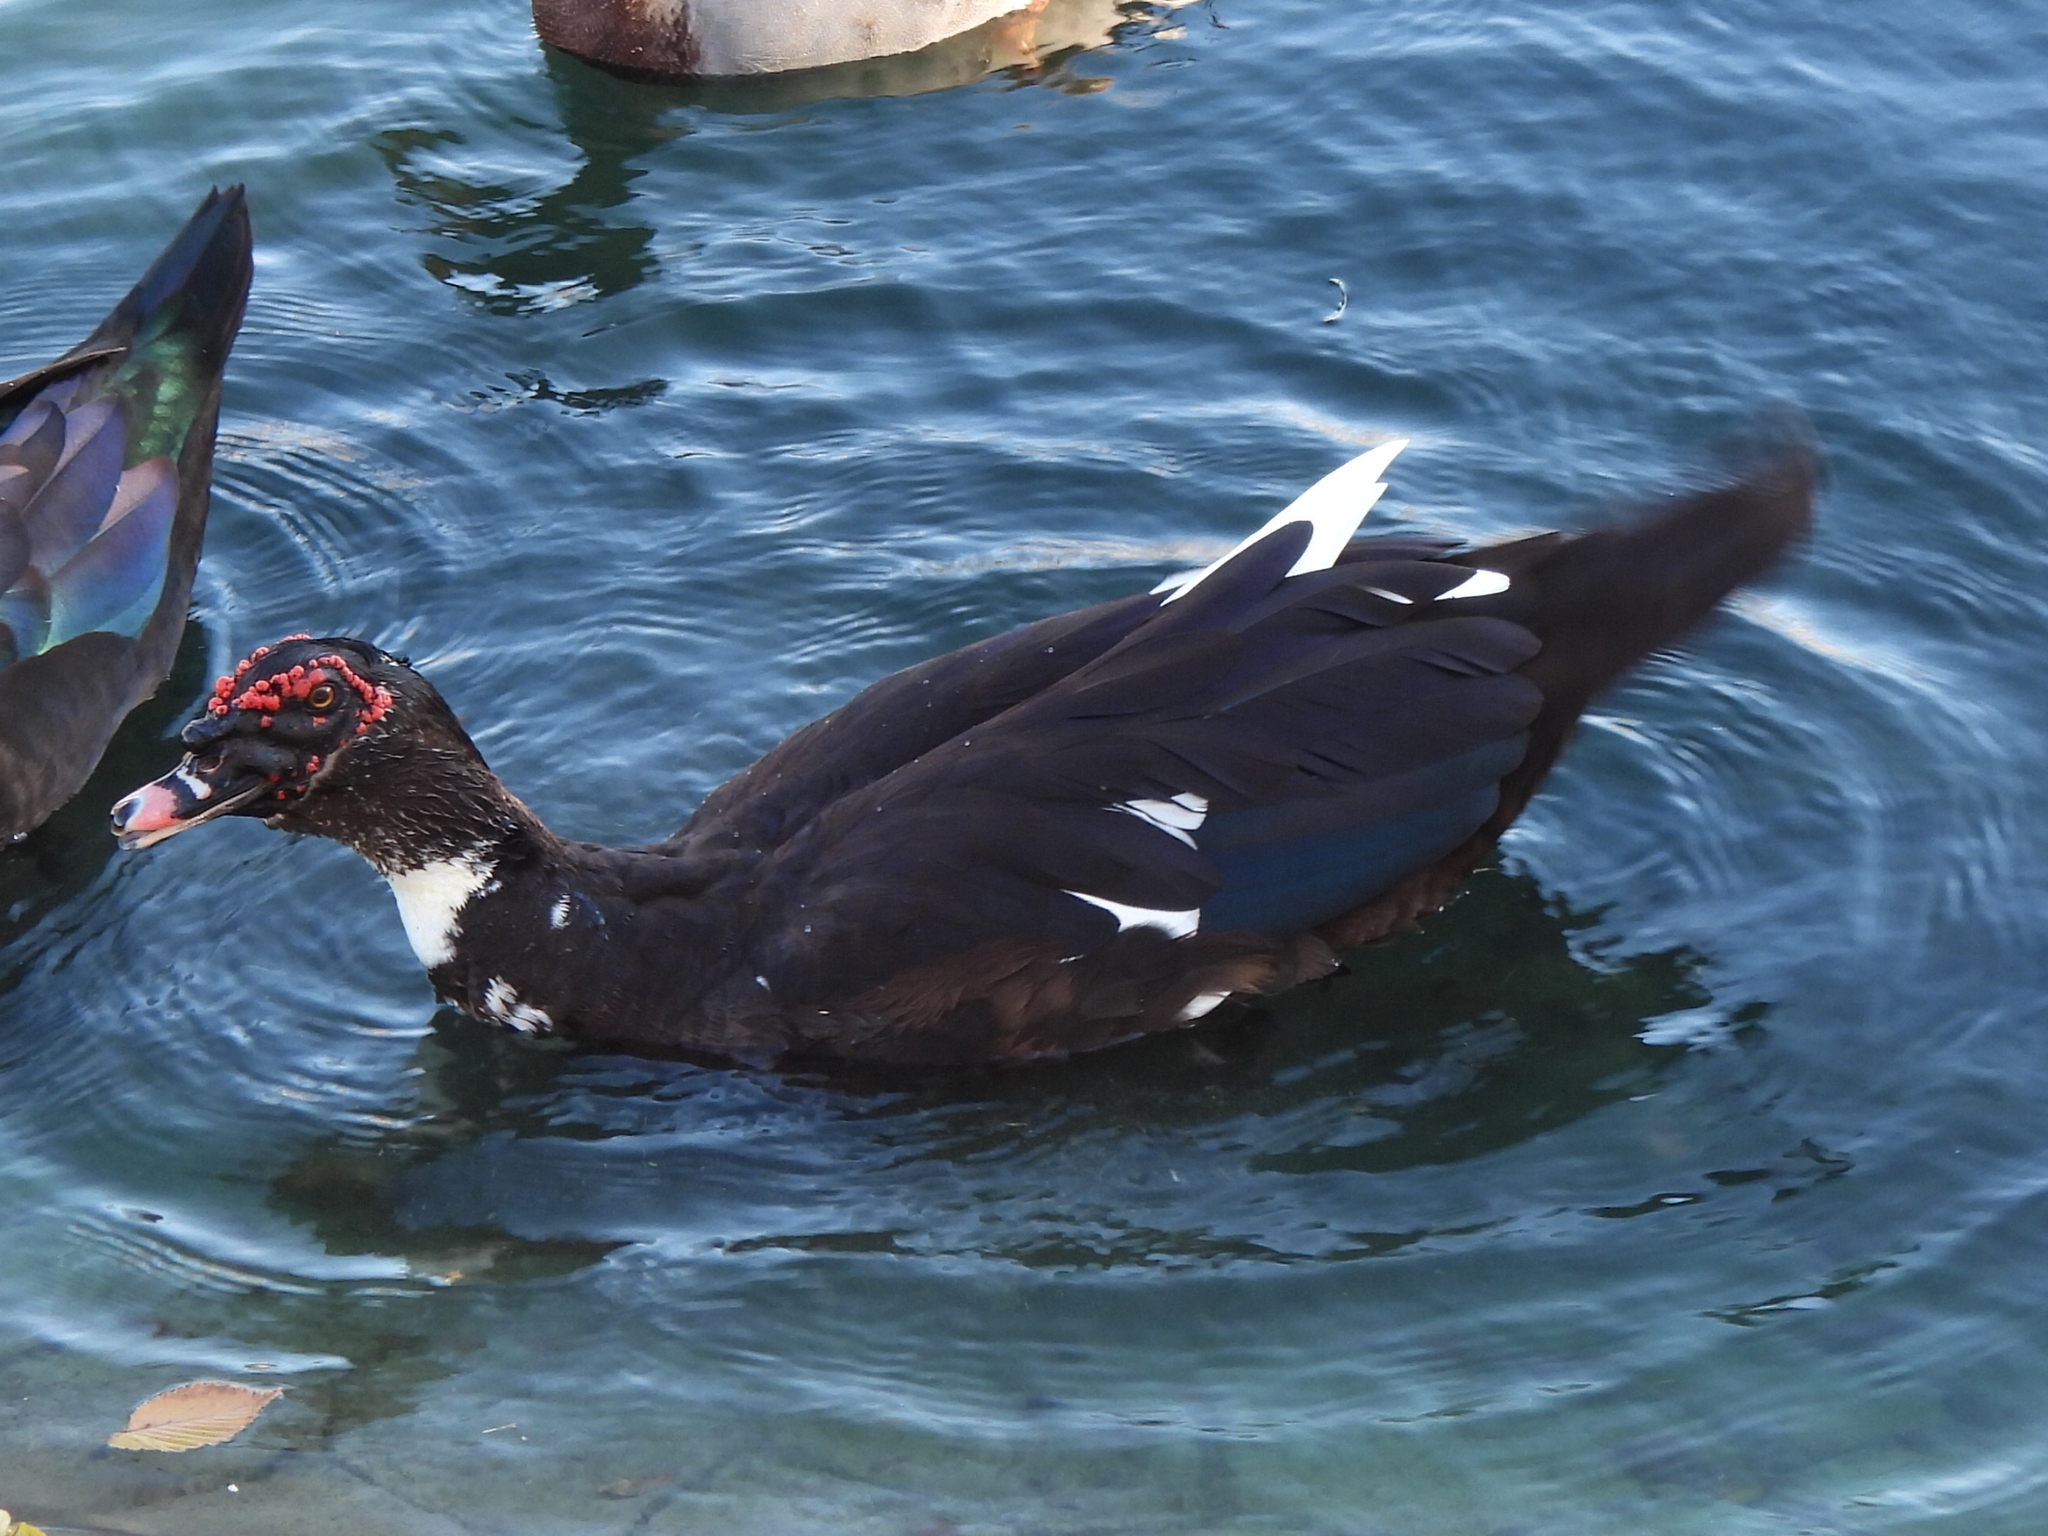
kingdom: Animalia
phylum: Chordata
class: Aves
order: Anseriformes
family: Anatidae
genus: Cairina
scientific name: Cairina moschata
